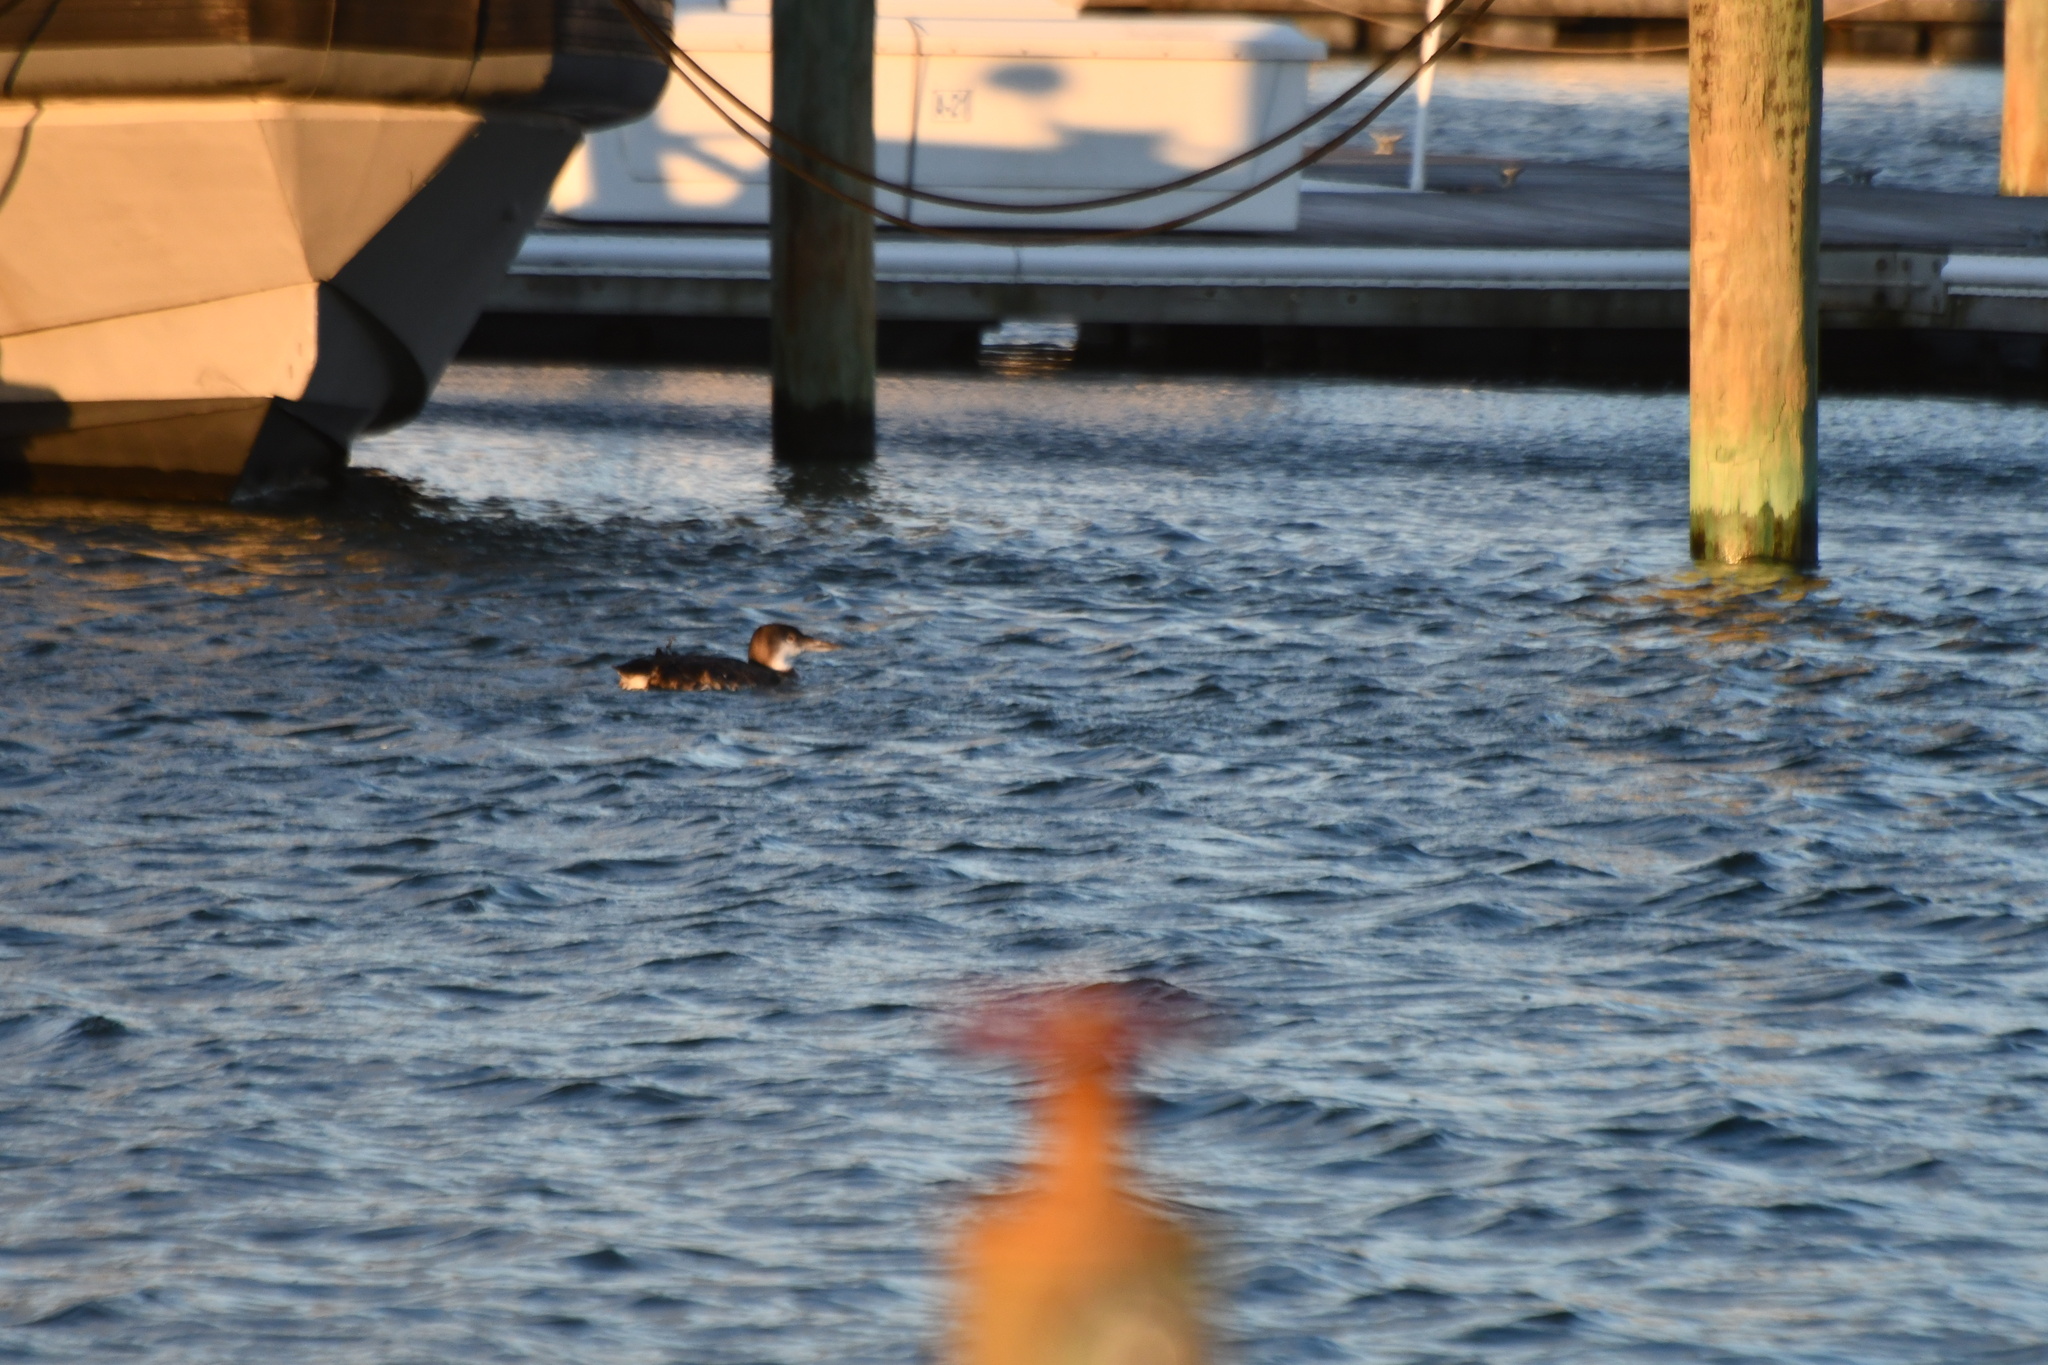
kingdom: Animalia
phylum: Chordata
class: Aves
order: Gaviiformes
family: Gaviidae
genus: Gavia
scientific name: Gavia immer
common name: Common loon
